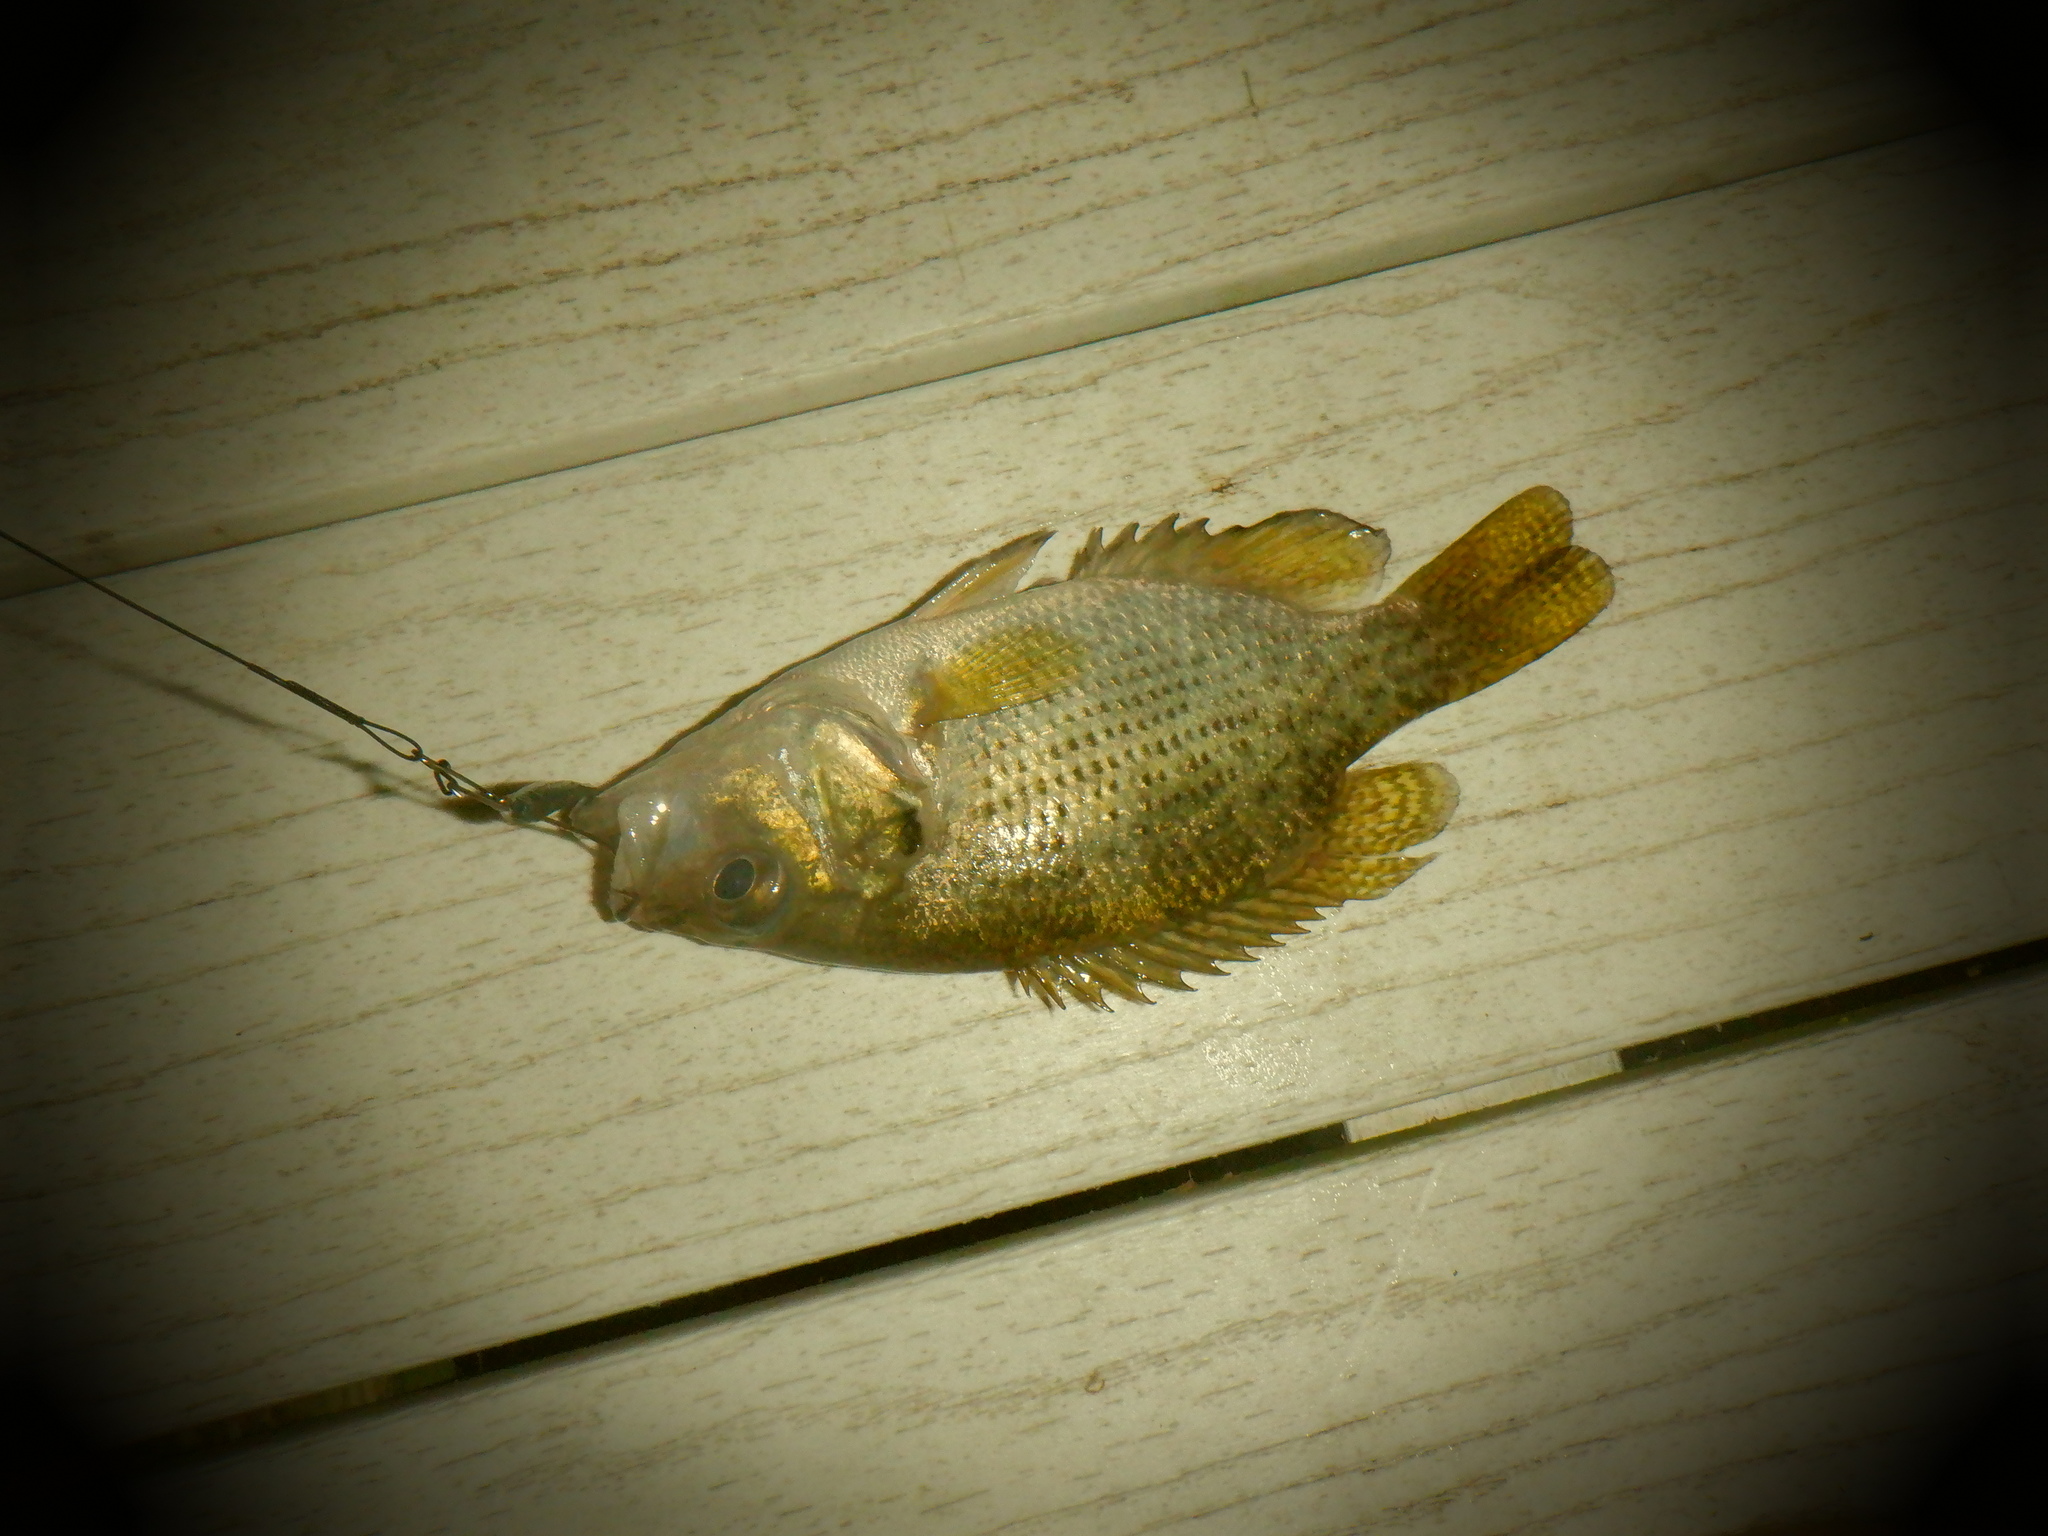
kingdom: Animalia
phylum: Chordata
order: Perciformes
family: Centrarchidae
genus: Ambloplites
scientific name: Ambloplites rupestris
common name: Rock bass
